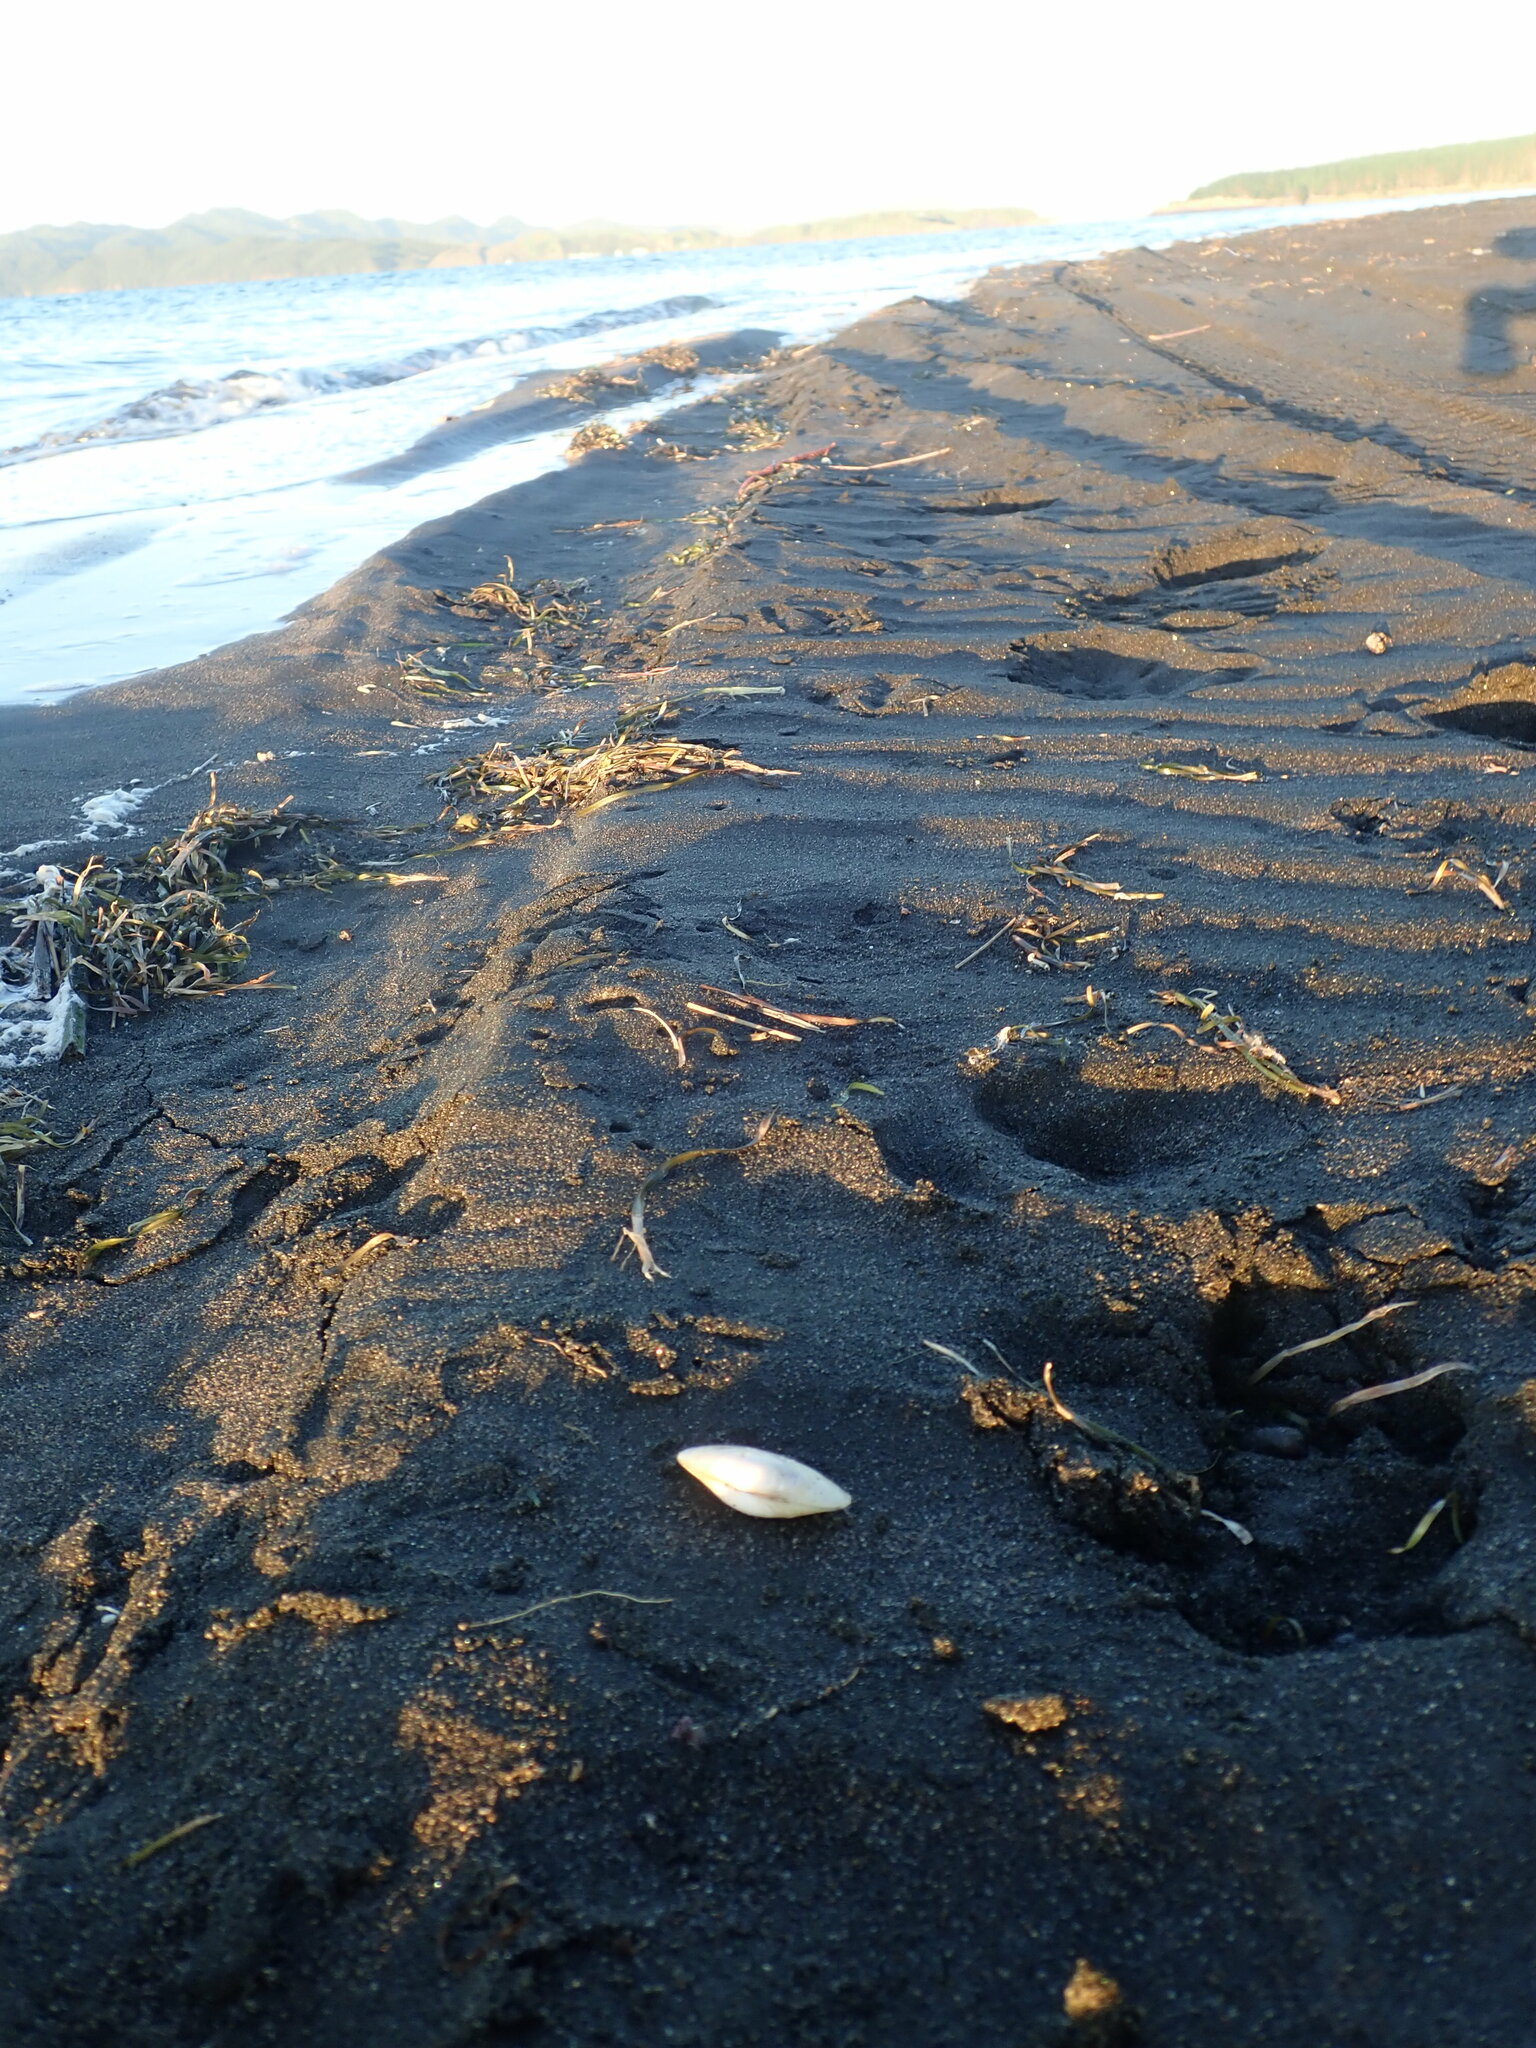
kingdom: Animalia
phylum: Mollusca
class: Bivalvia
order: Venerida
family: Mesodesmatidae
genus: Paphies
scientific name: Paphies australis
